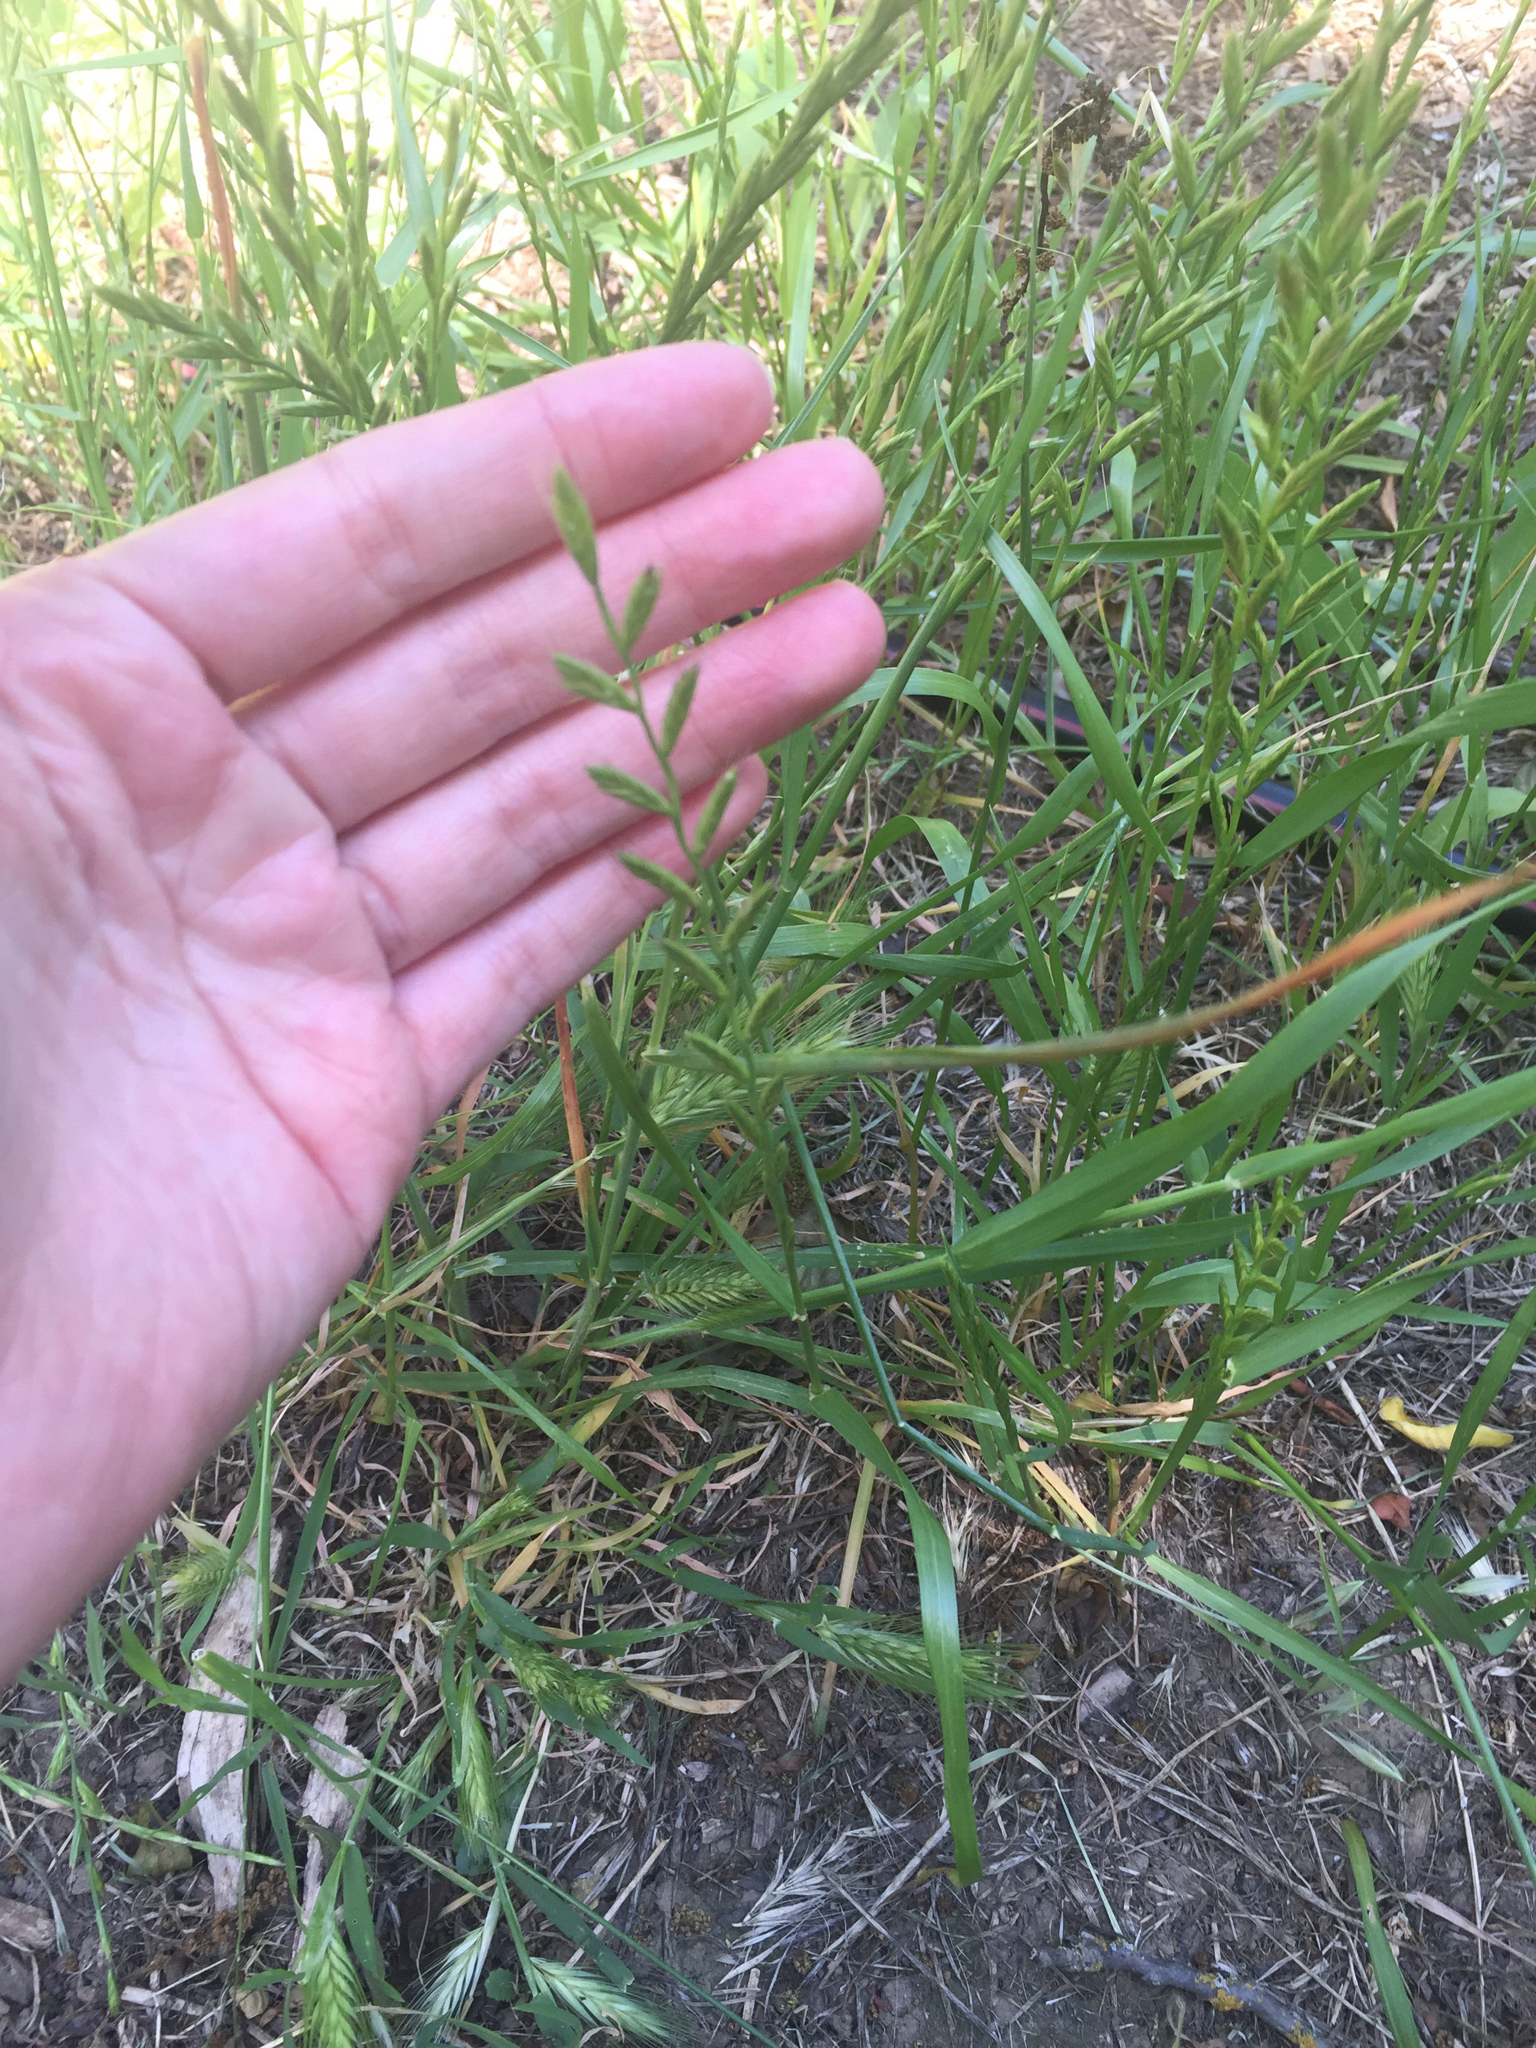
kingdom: Plantae
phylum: Tracheophyta
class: Liliopsida
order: Poales
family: Poaceae
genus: Lolium
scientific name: Lolium perenne
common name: Perennial ryegrass
